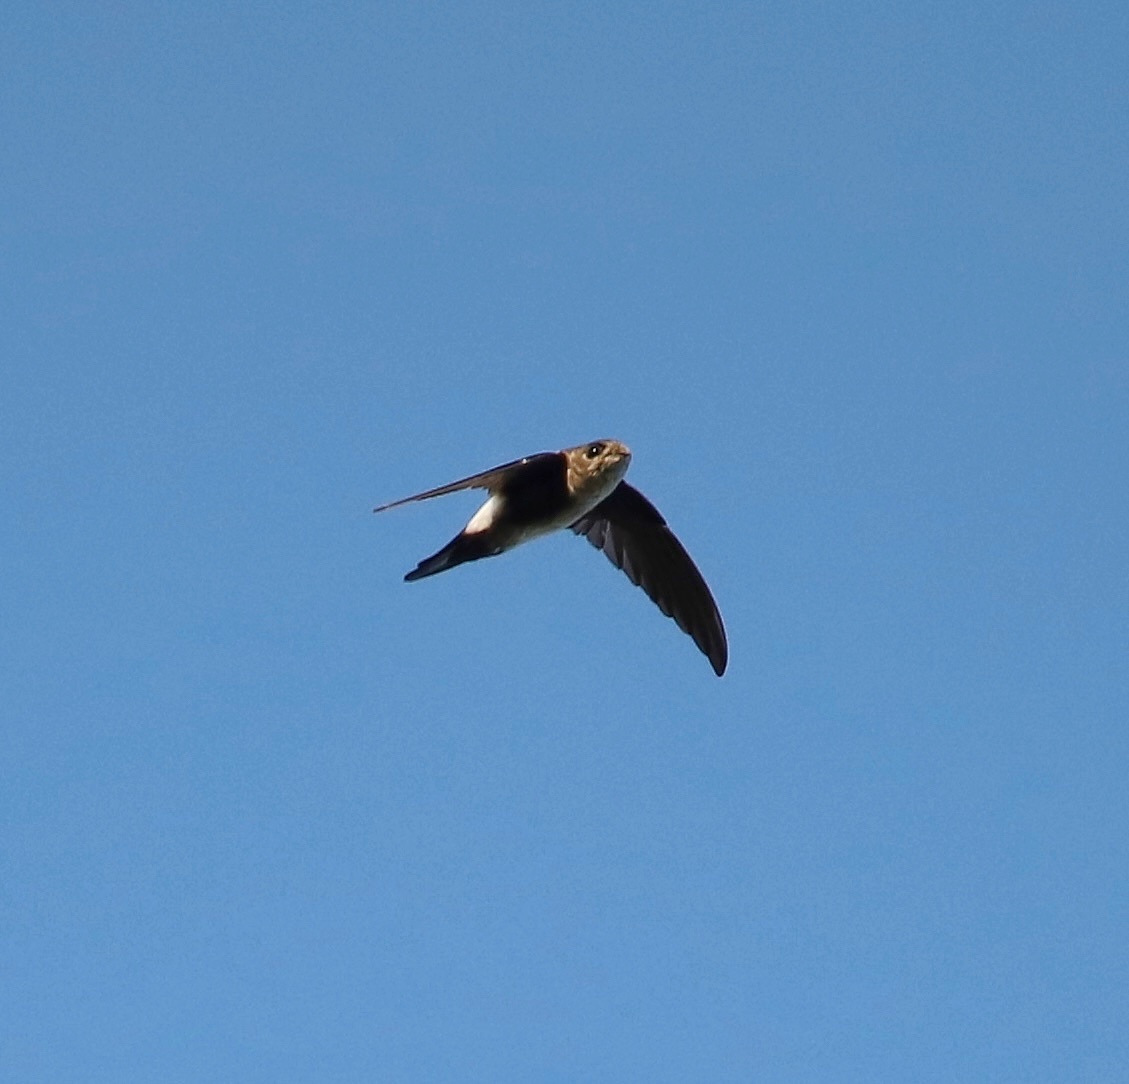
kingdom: Animalia
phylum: Chordata
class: Aves
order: Apodiformes
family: Apodidae
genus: Tachornis
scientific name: Tachornis phoenicobia
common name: Antillean palm swift
